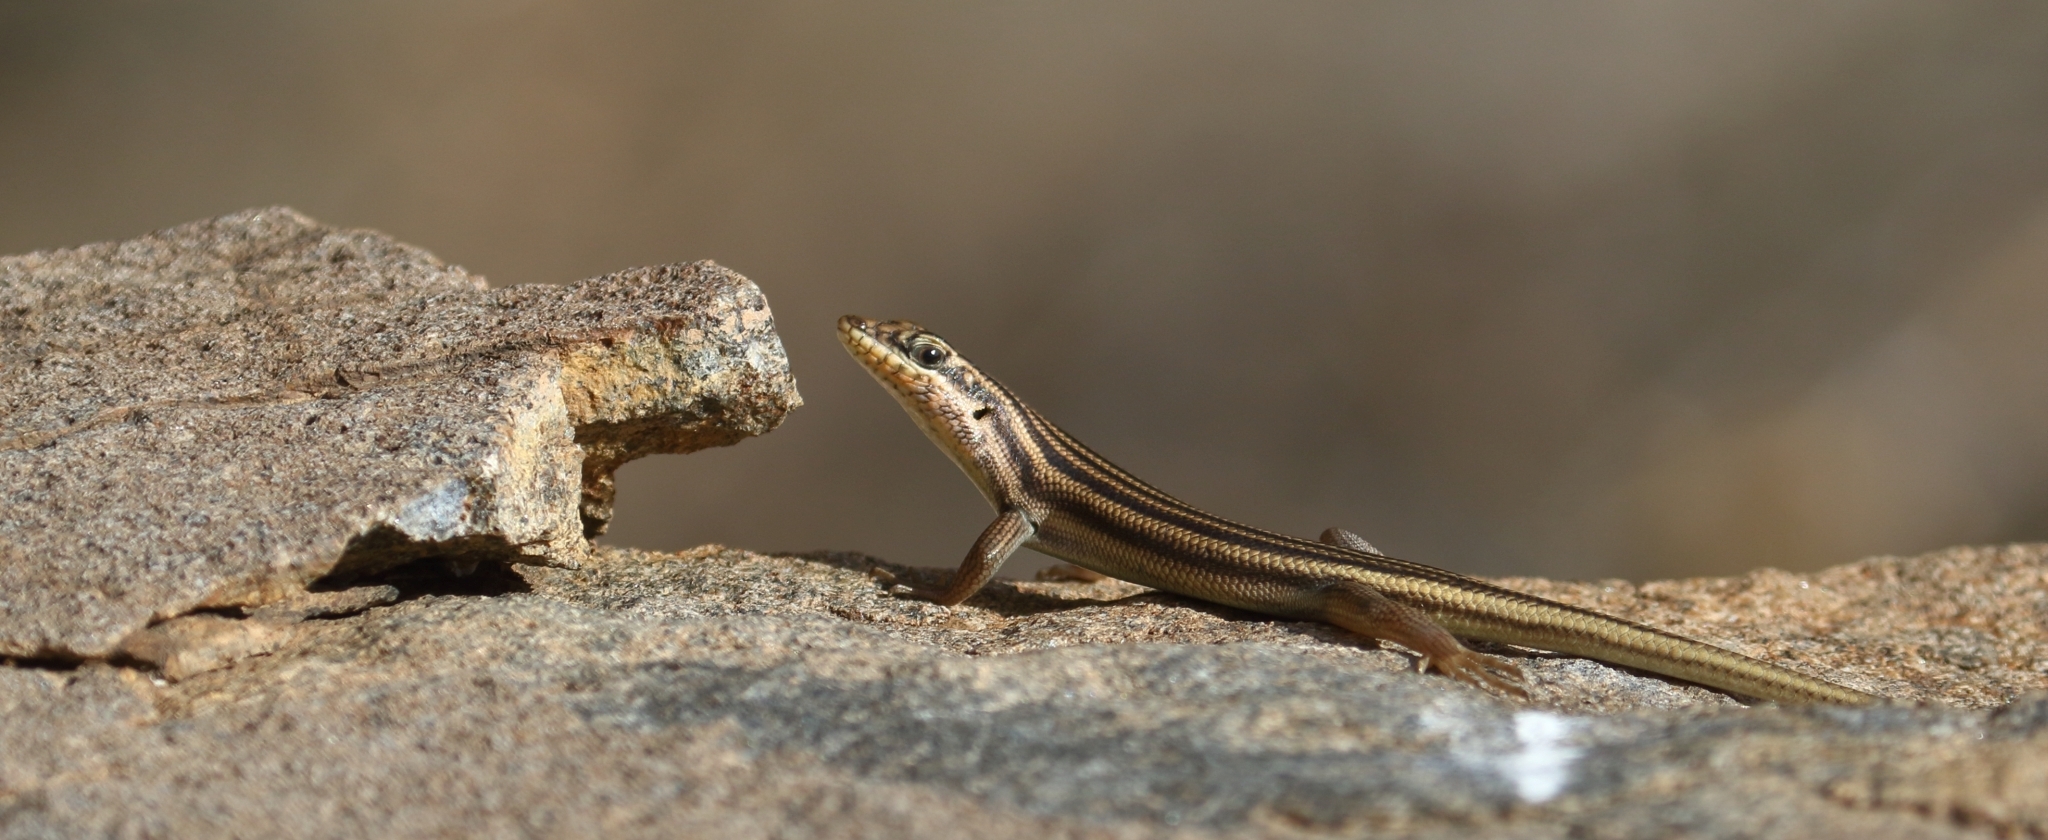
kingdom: Animalia
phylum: Chordata
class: Squamata
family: Scincidae
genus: Trachylepis
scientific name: Trachylepis sulcata
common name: Western rock skink
